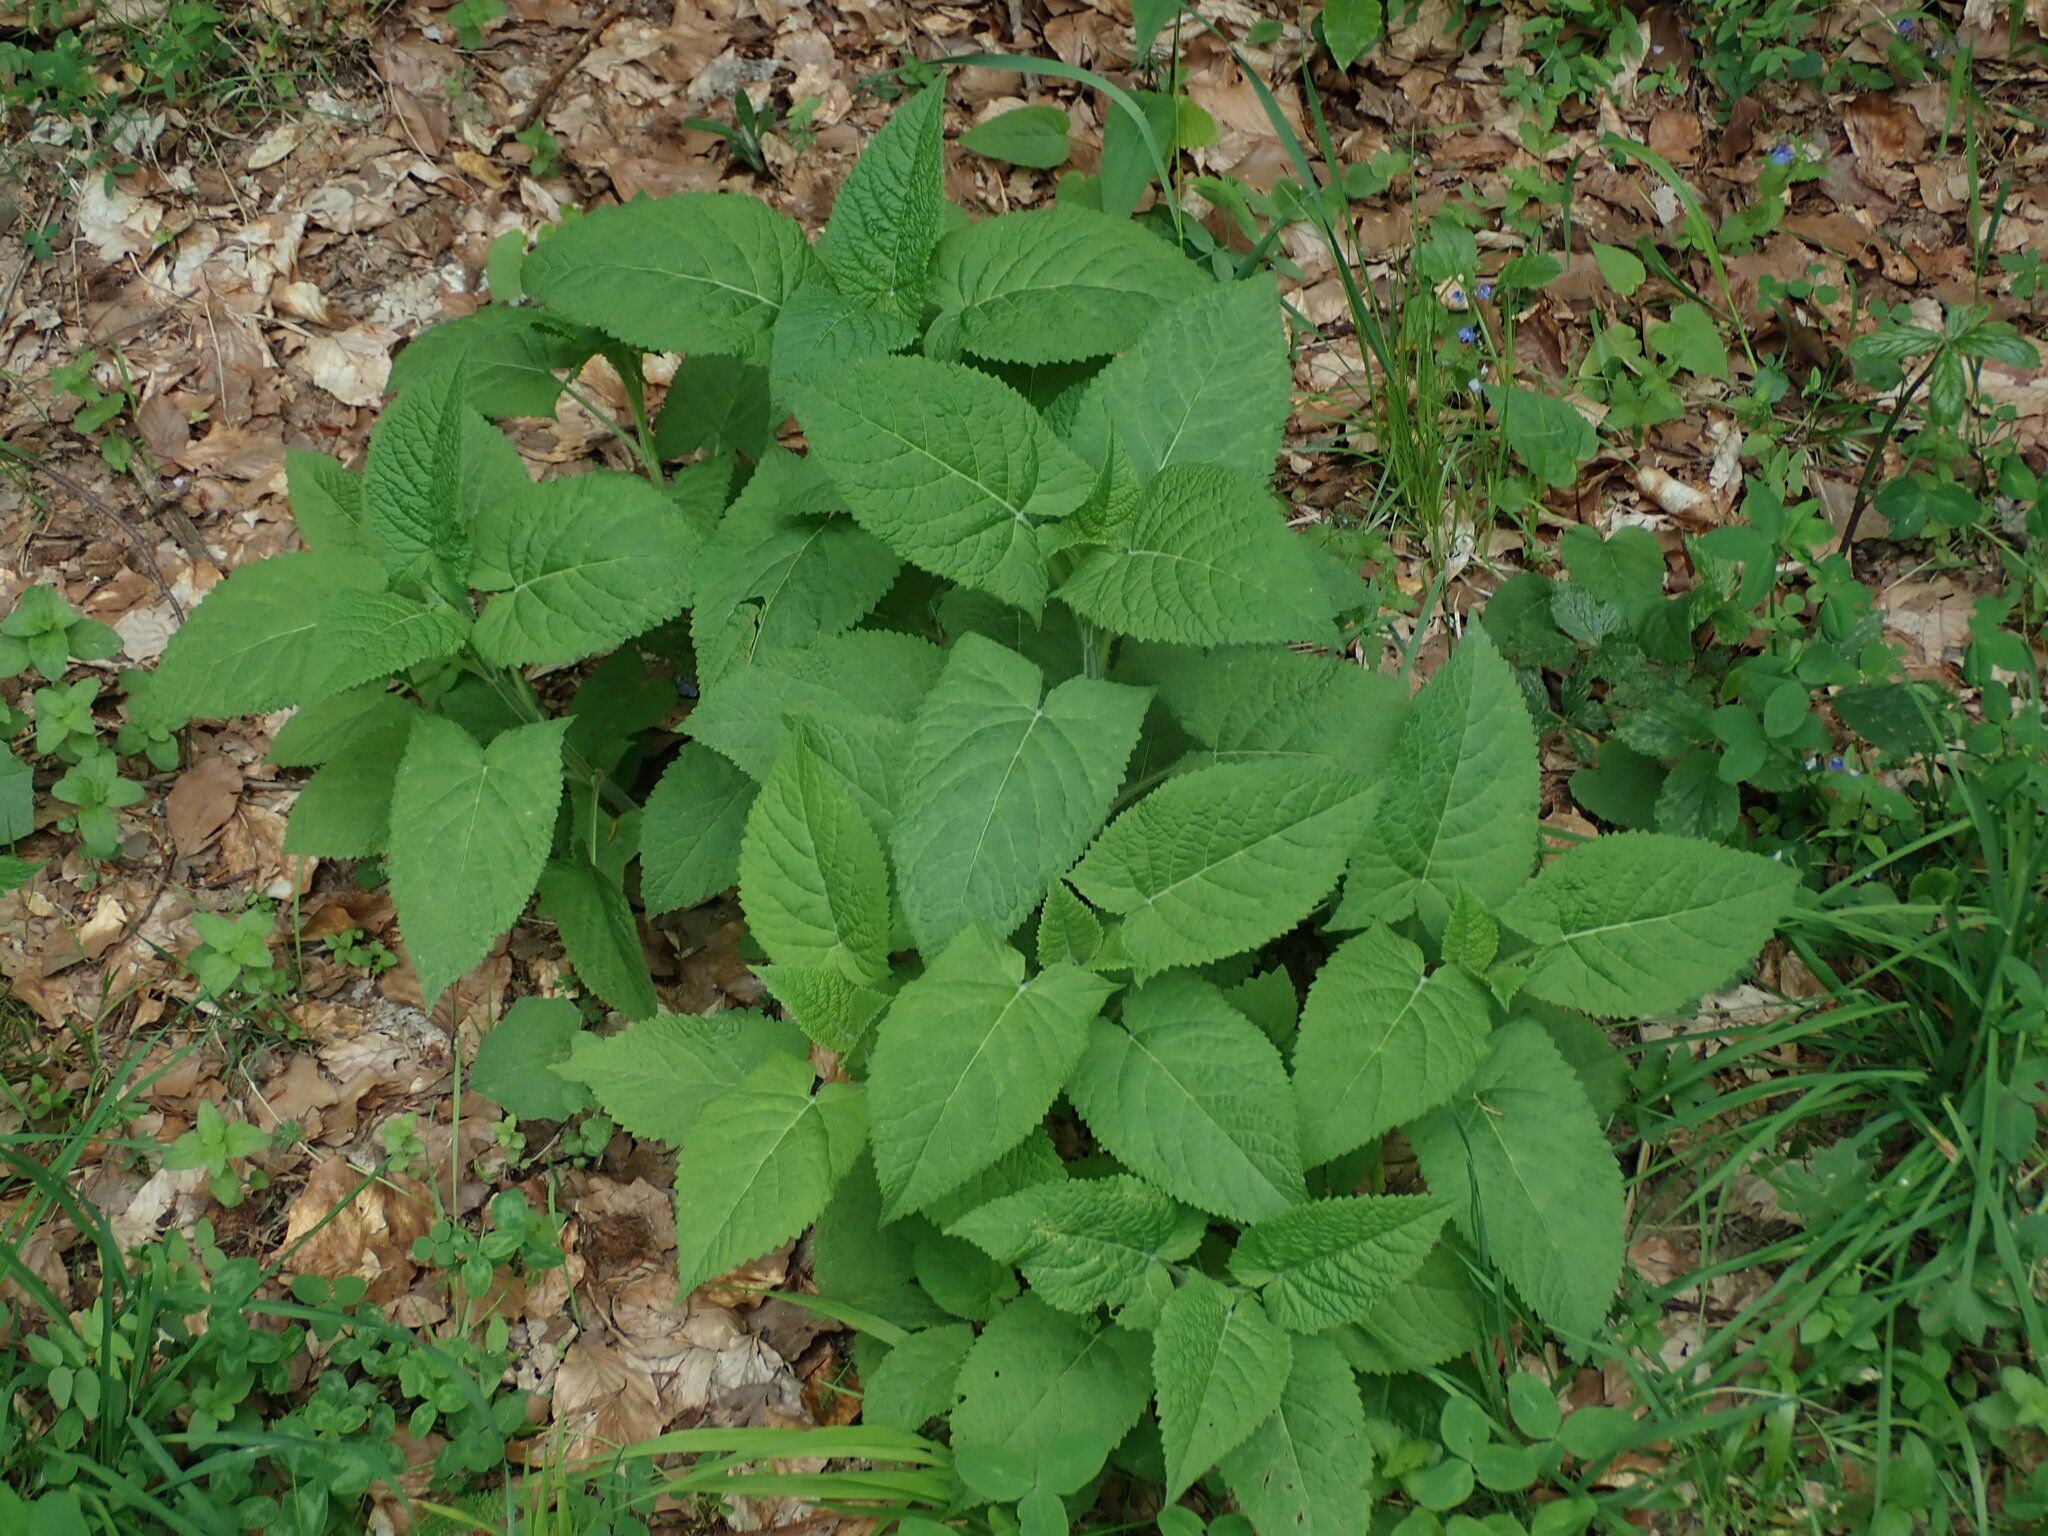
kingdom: Plantae
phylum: Tracheophyta
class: Magnoliopsida
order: Lamiales
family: Lamiaceae
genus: Salvia
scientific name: Salvia glutinosa
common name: Sticky clary
